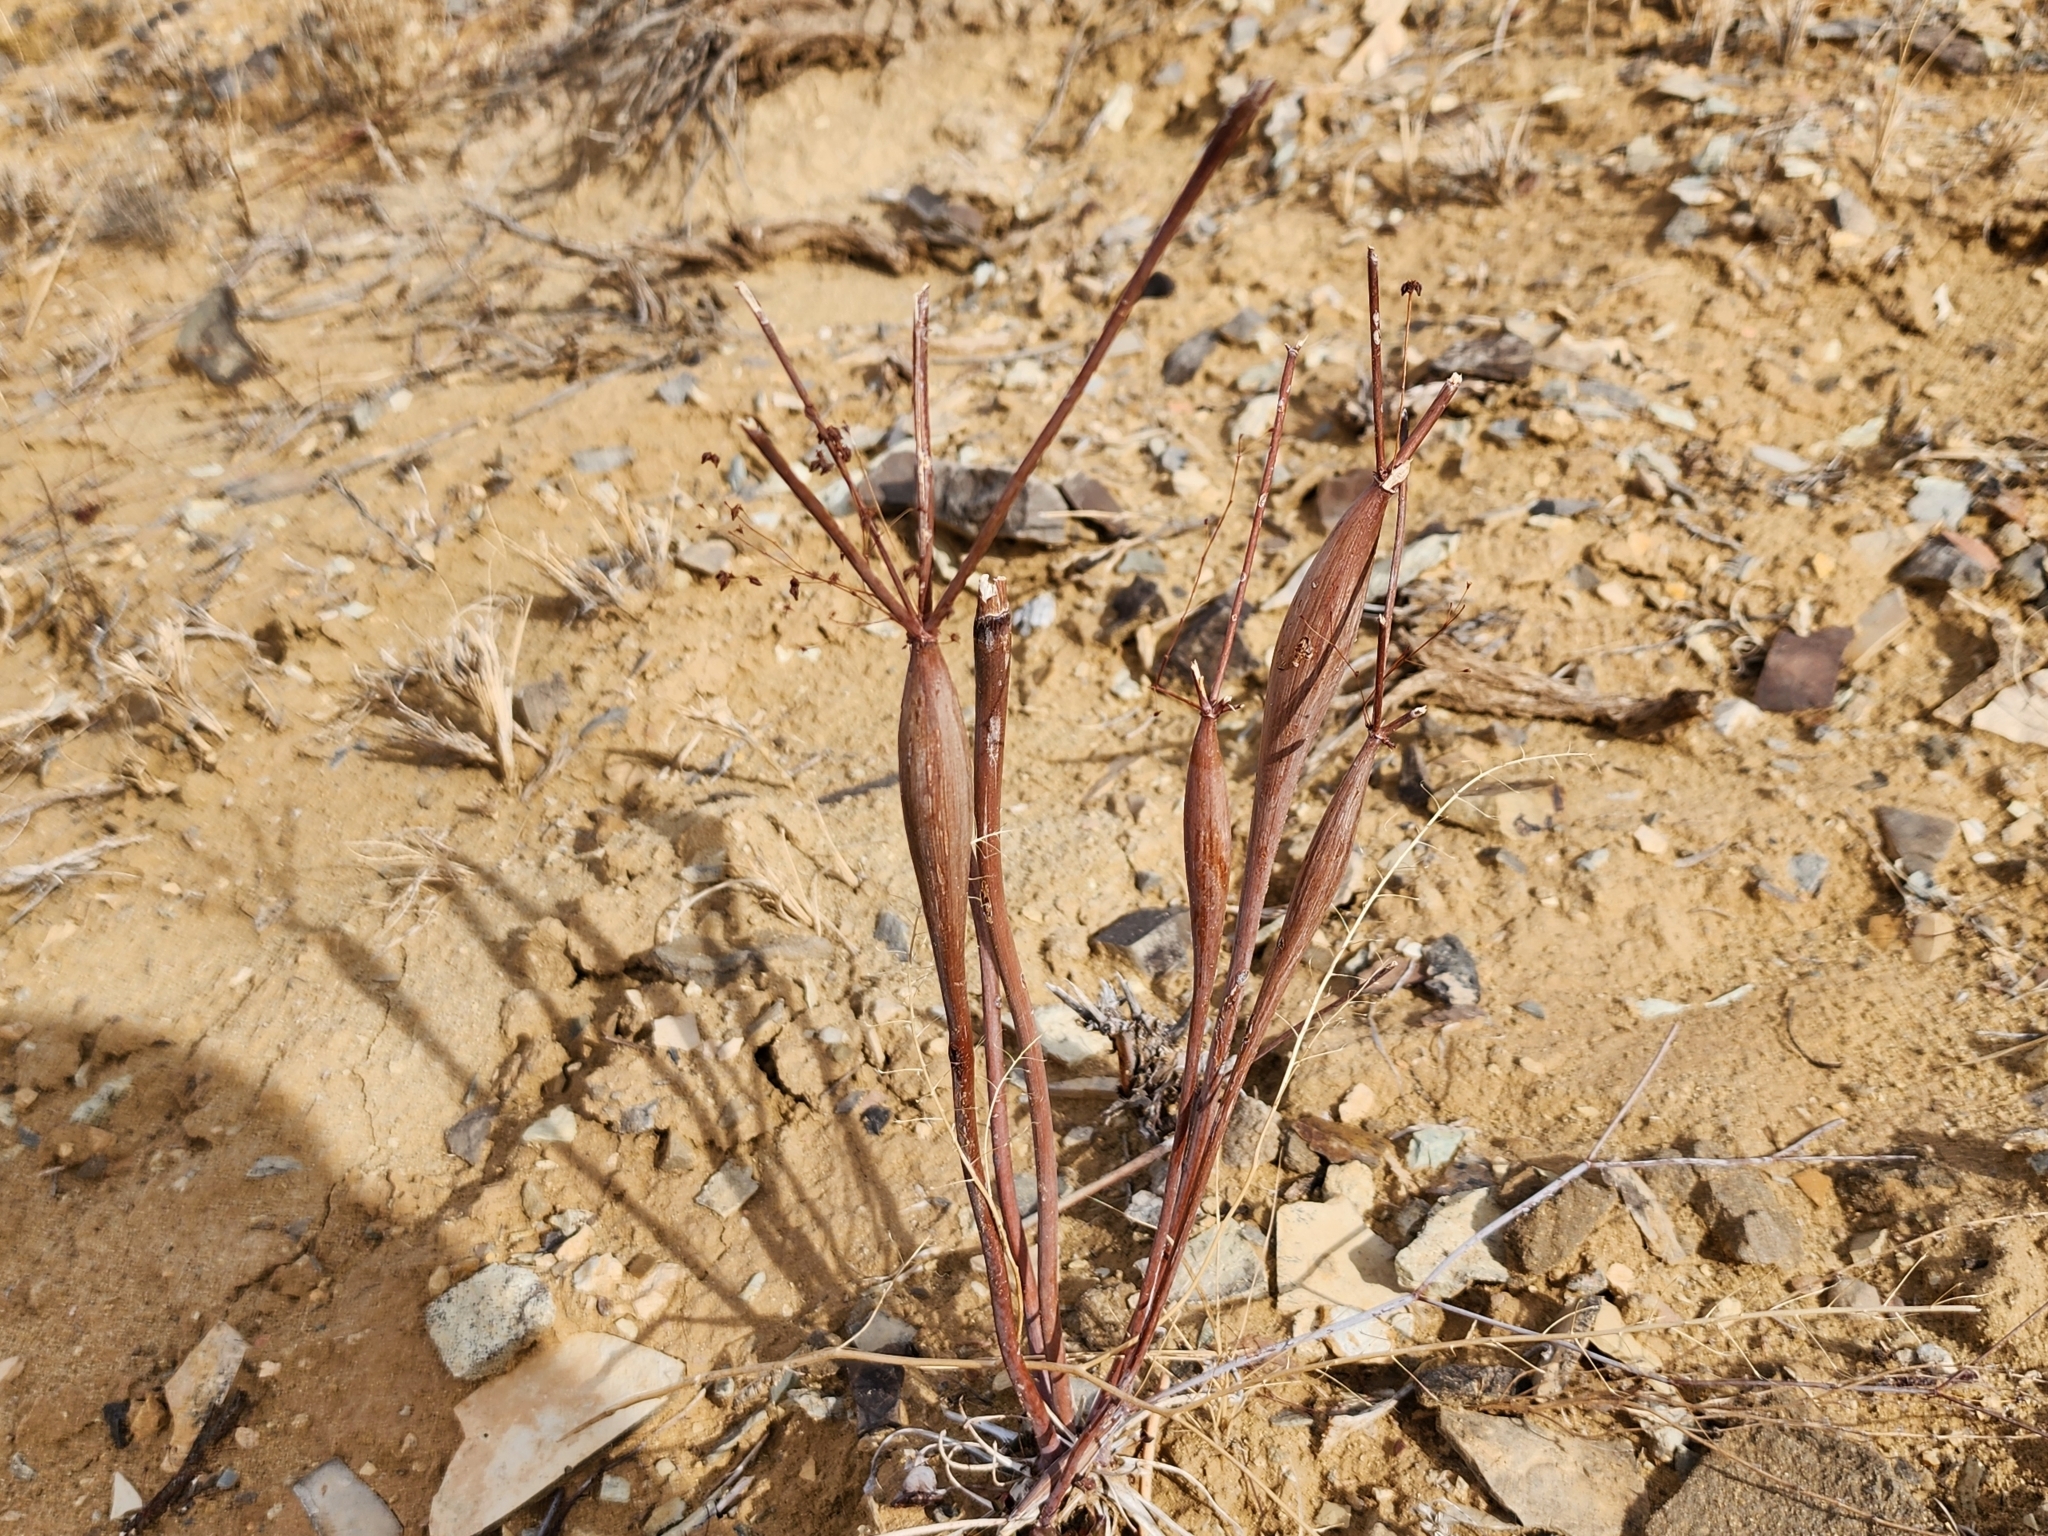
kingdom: Plantae
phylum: Tracheophyta
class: Magnoliopsida
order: Caryophyllales
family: Polygonaceae
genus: Eriogonum
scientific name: Eriogonum inflatum
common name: Desert trumpet
